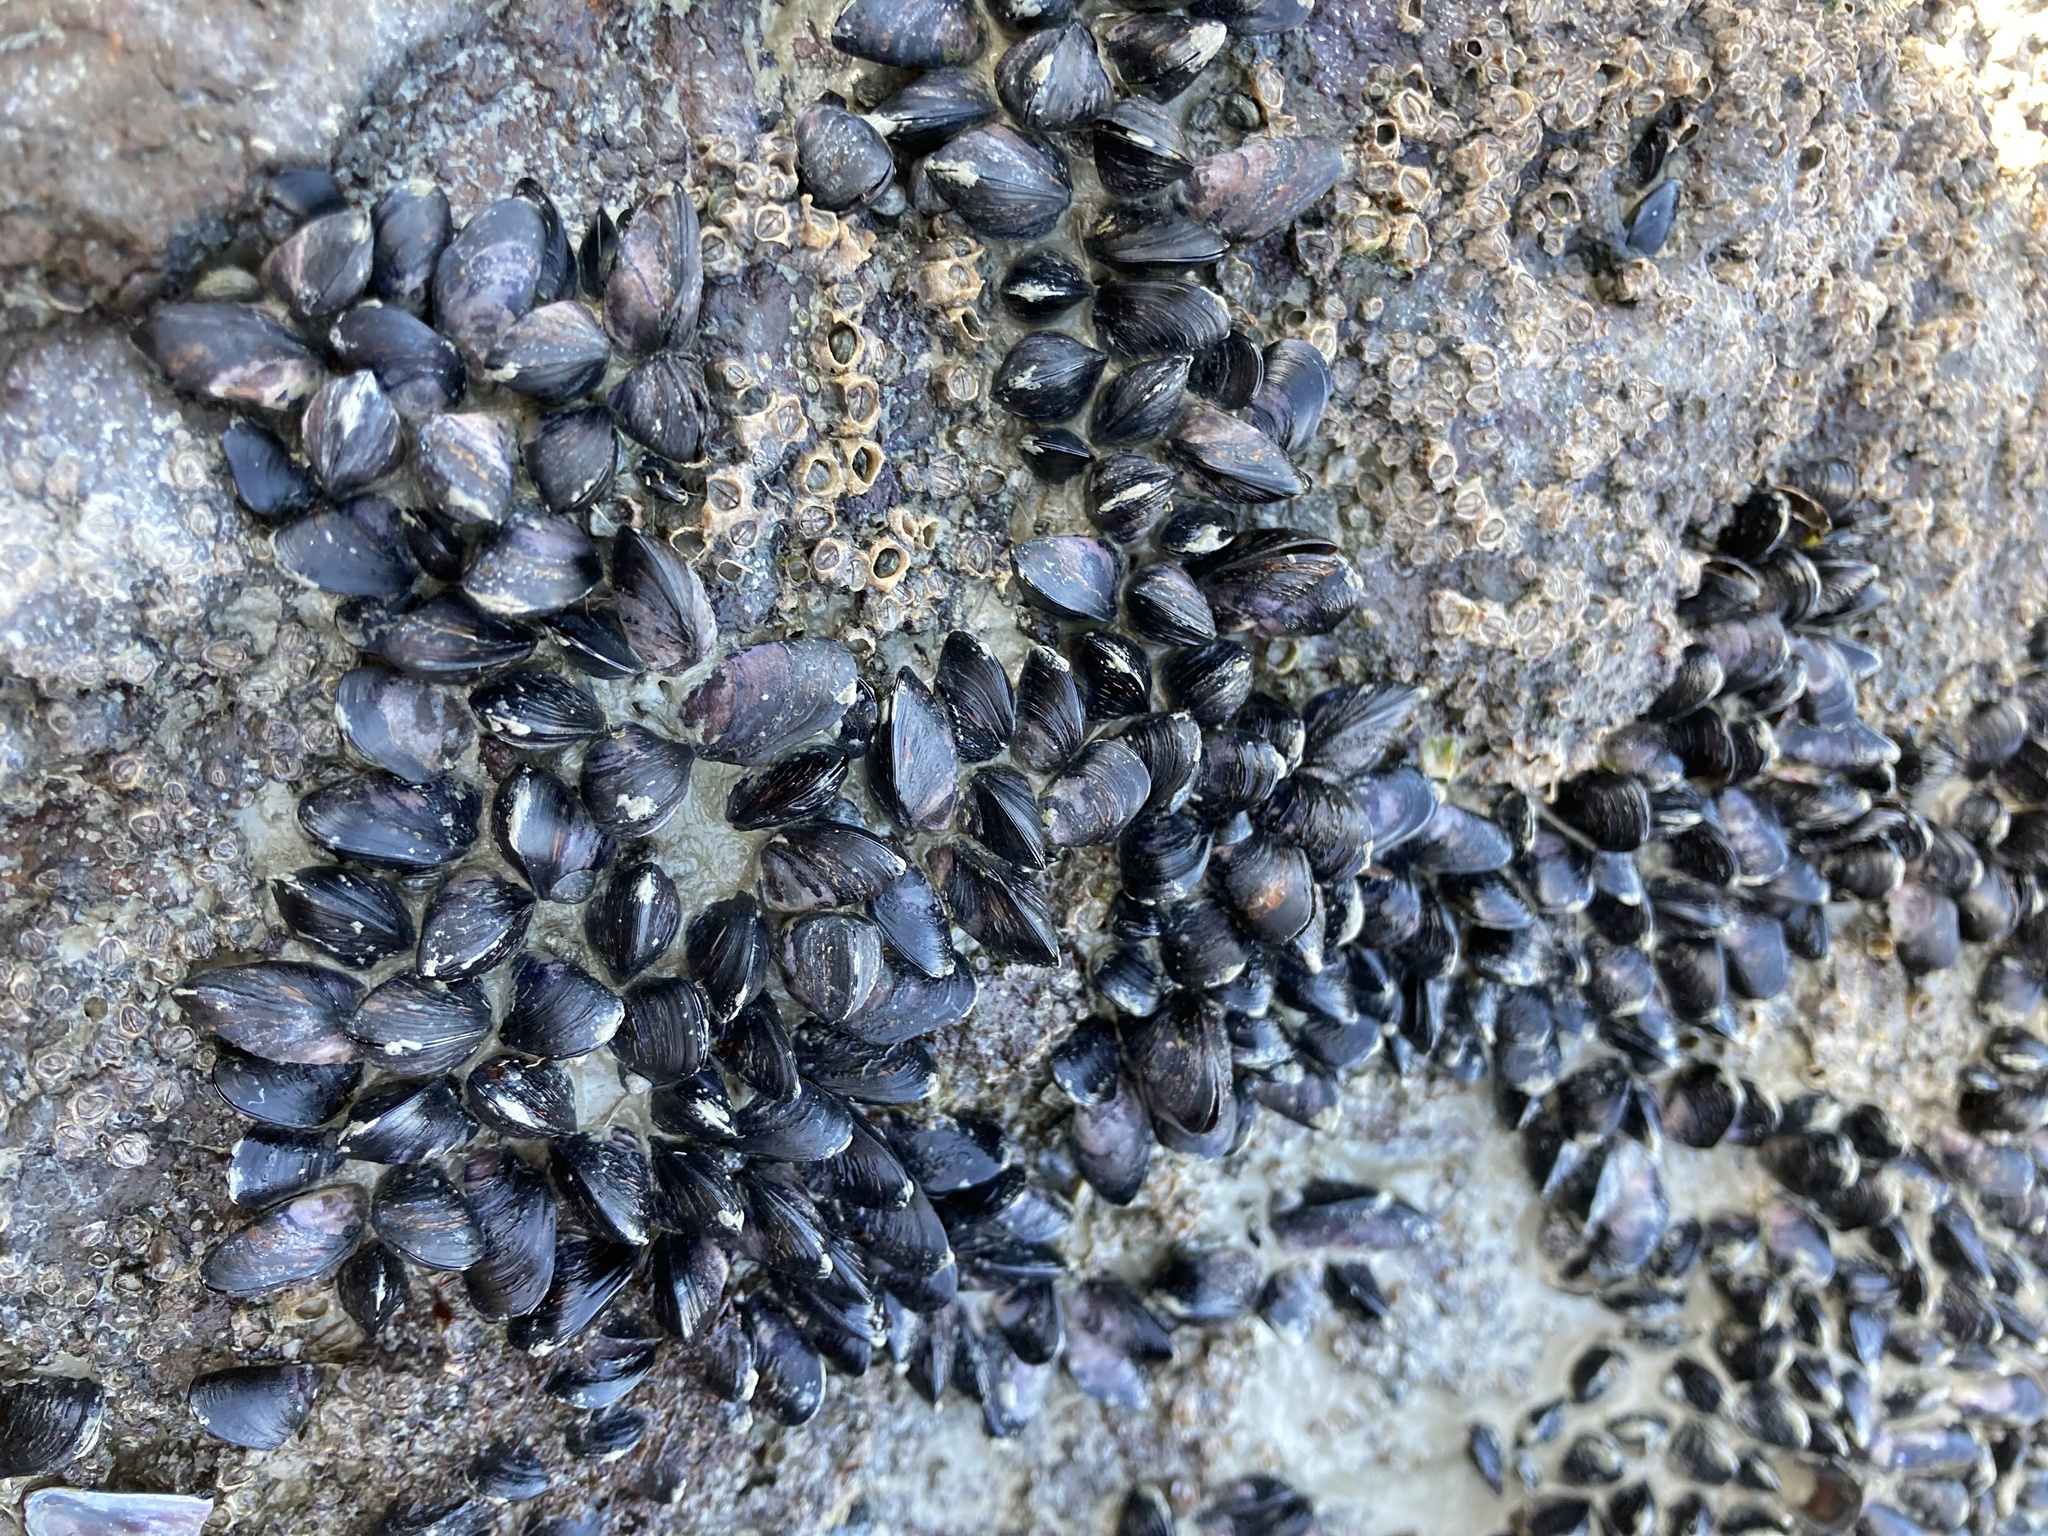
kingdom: Animalia
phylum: Mollusca
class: Bivalvia
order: Mytilida
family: Mytilidae
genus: Xenostrobus
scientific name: Xenostrobus neozelanicus
